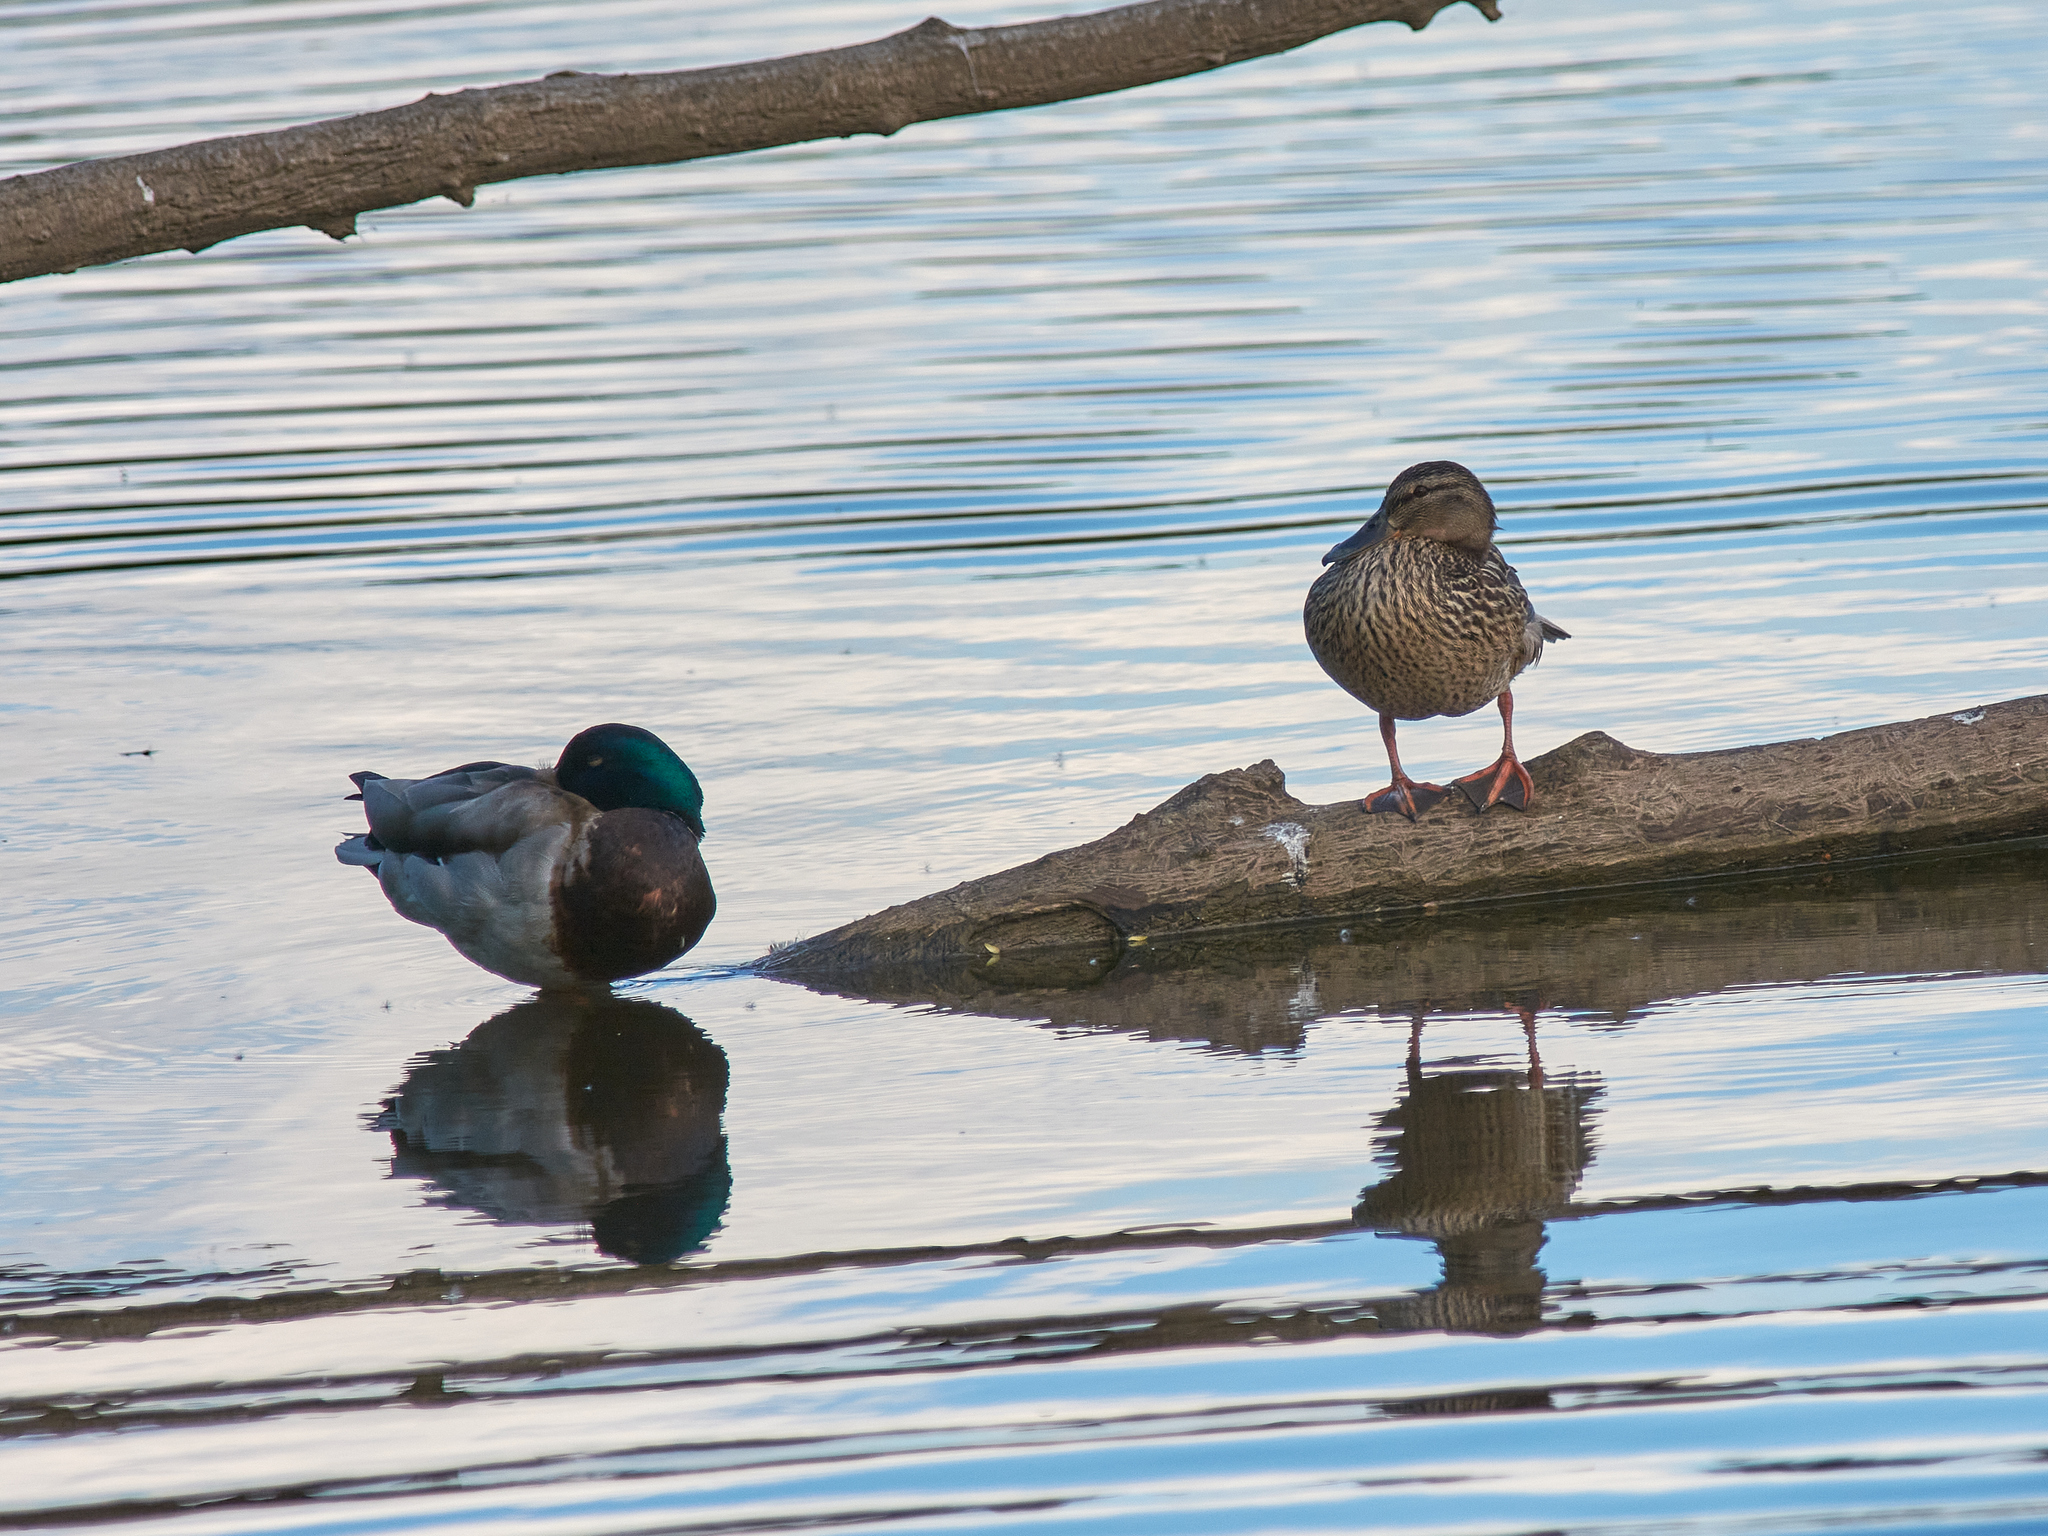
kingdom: Animalia
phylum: Chordata
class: Aves
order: Anseriformes
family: Anatidae
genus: Anas
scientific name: Anas platyrhynchos
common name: Mallard
